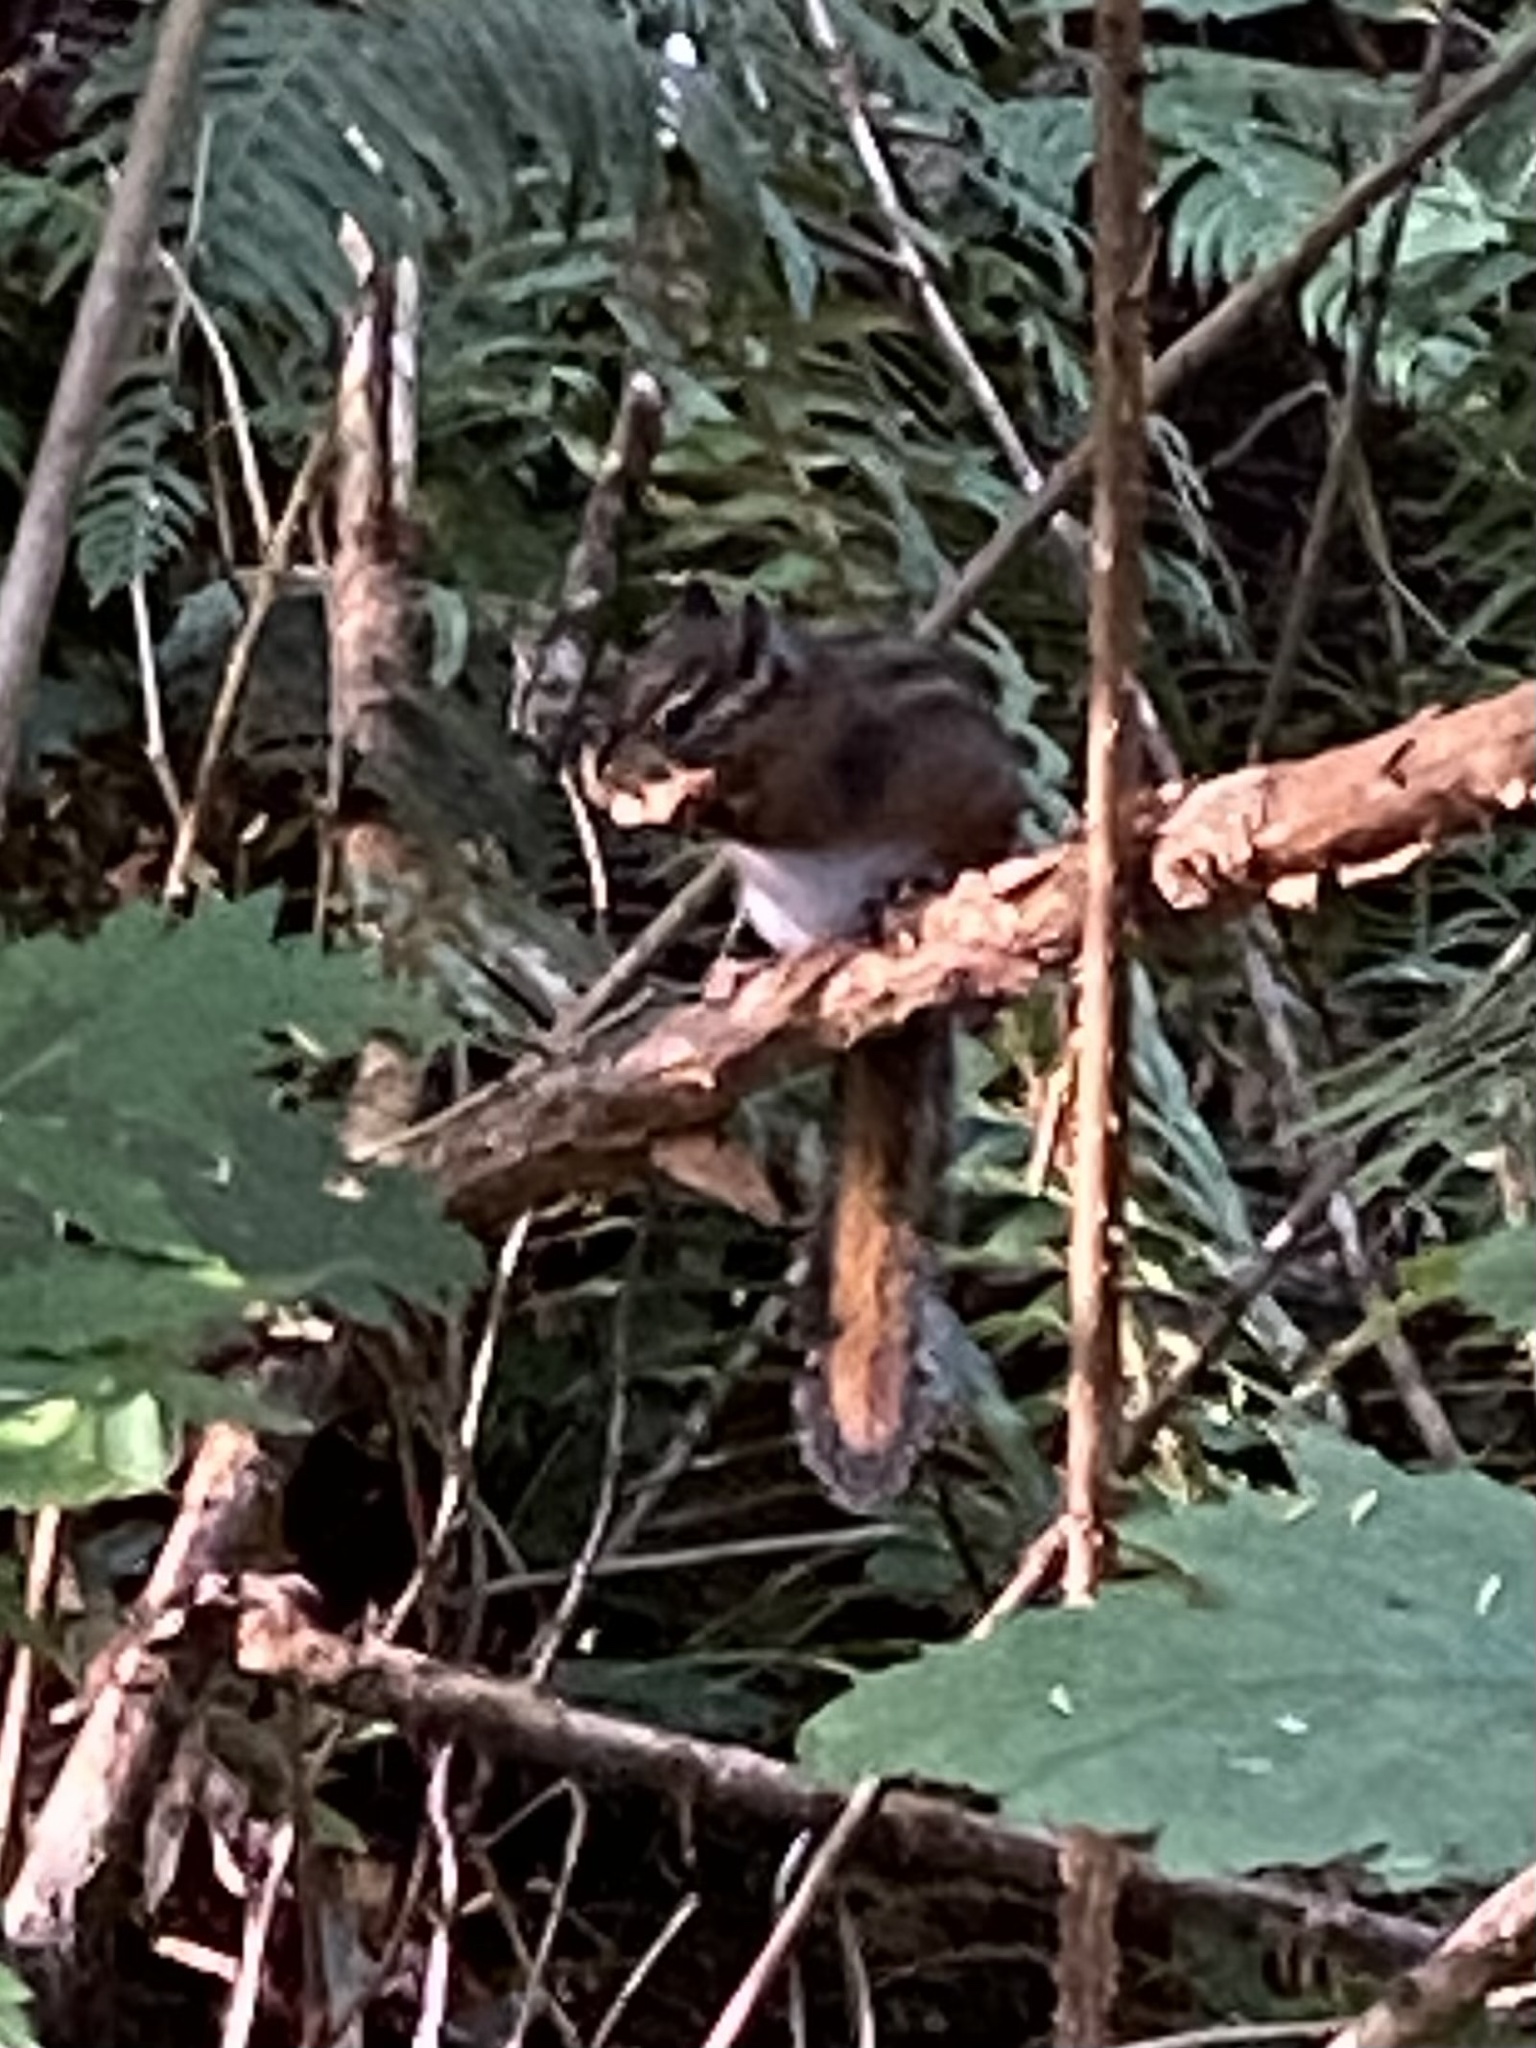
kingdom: Animalia
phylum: Chordata
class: Mammalia
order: Rodentia
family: Sciuridae
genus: Tamias
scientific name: Tamias townsendii
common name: Townsend's chipmunk
